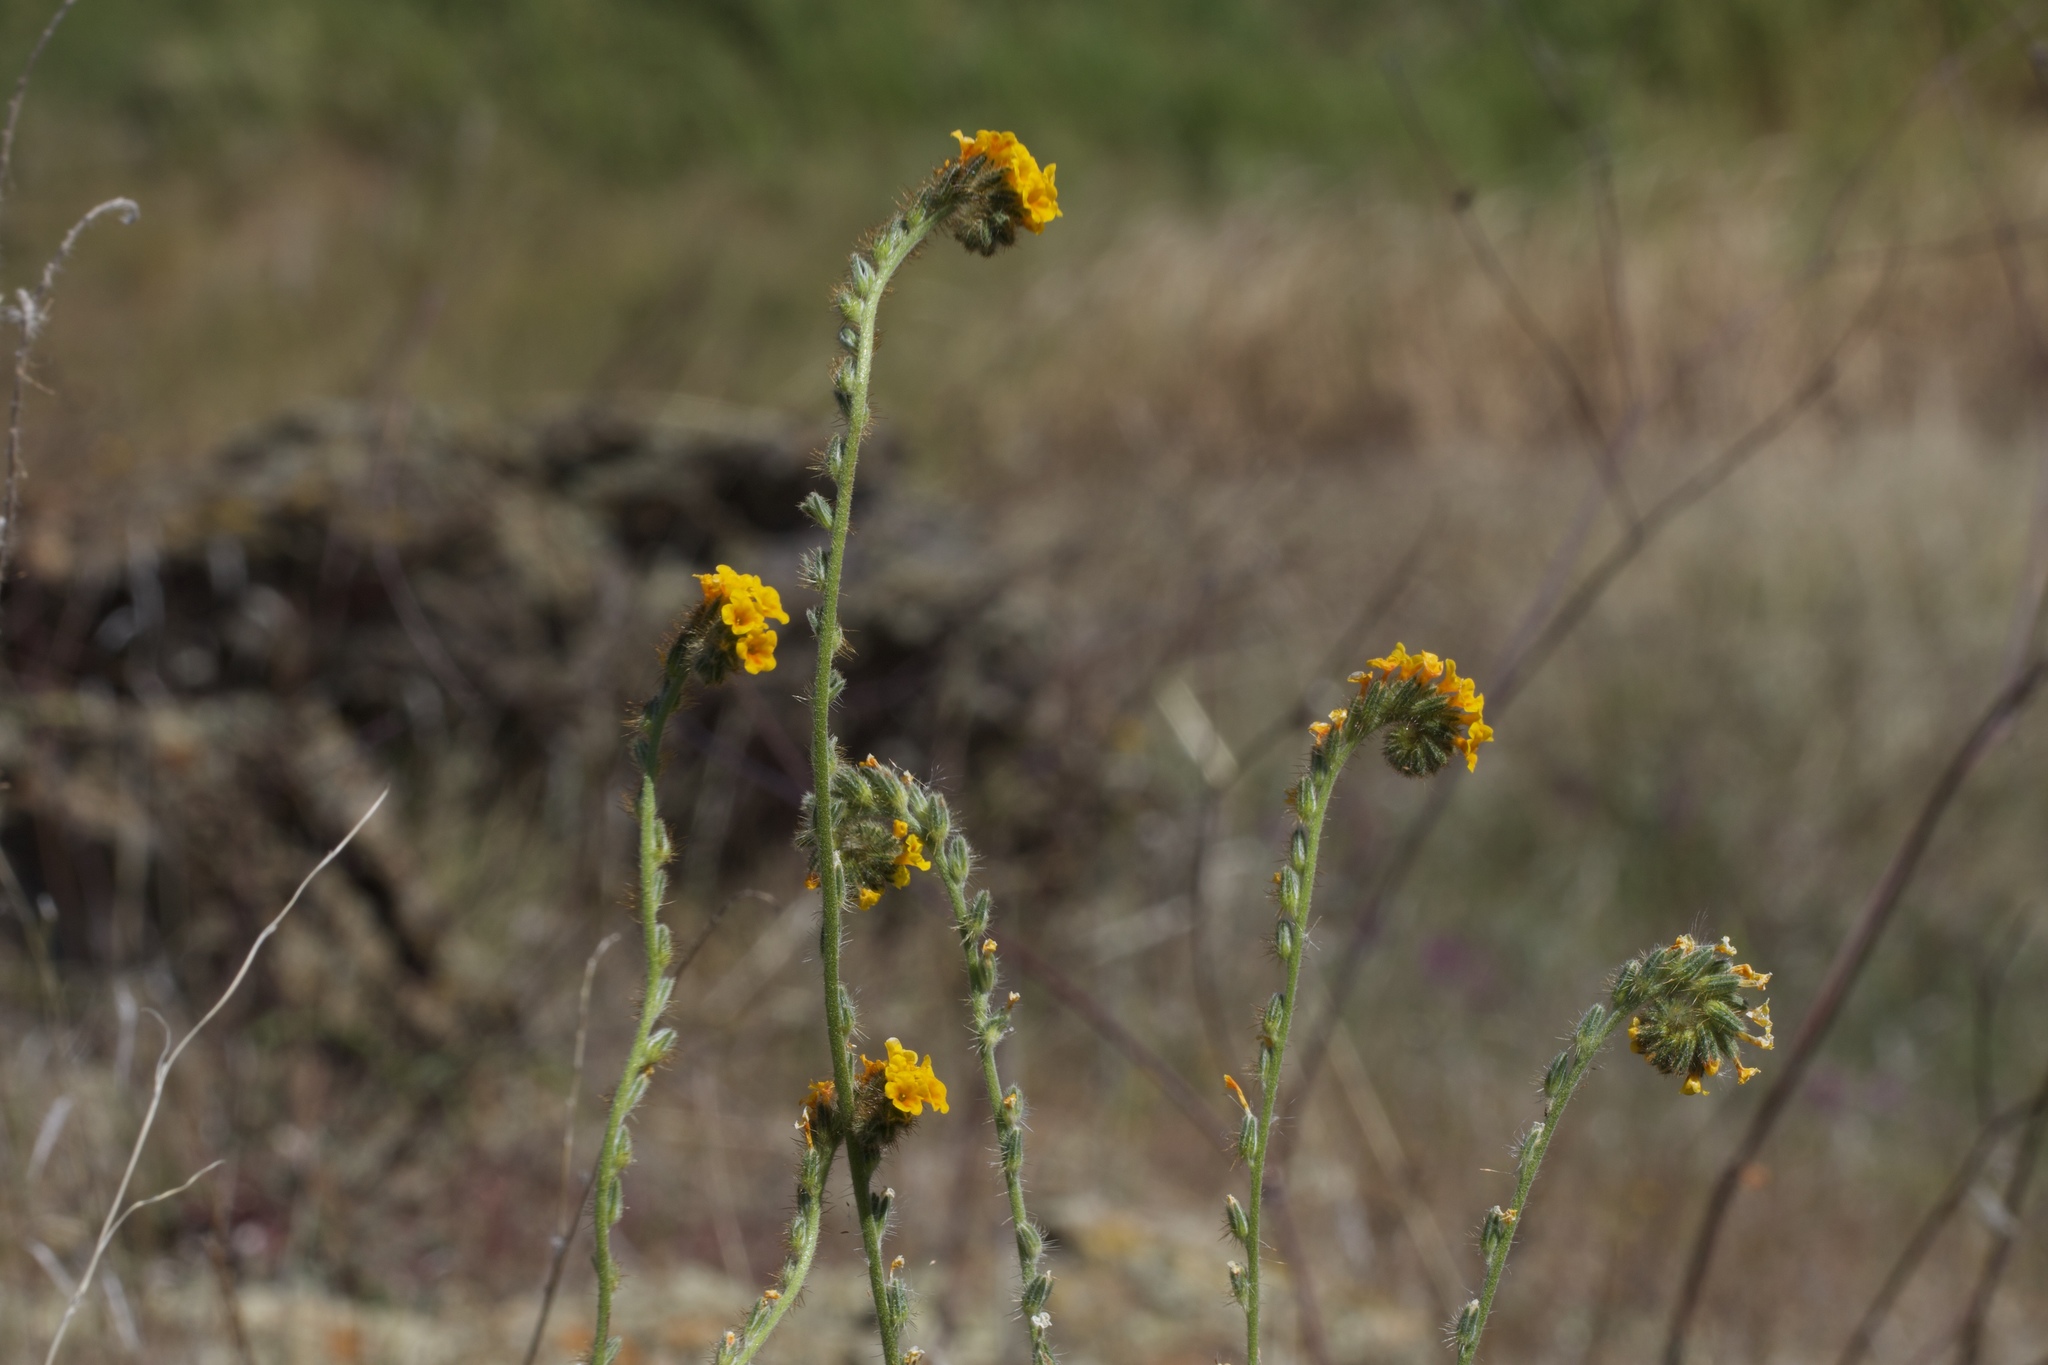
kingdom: Plantae
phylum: Tracheophyta
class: Magnoliopsida
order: Boraginales
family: Boraginaceae
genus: Amsinckia
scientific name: Amsinckia menziesii
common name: Menzies' fiddleneck
